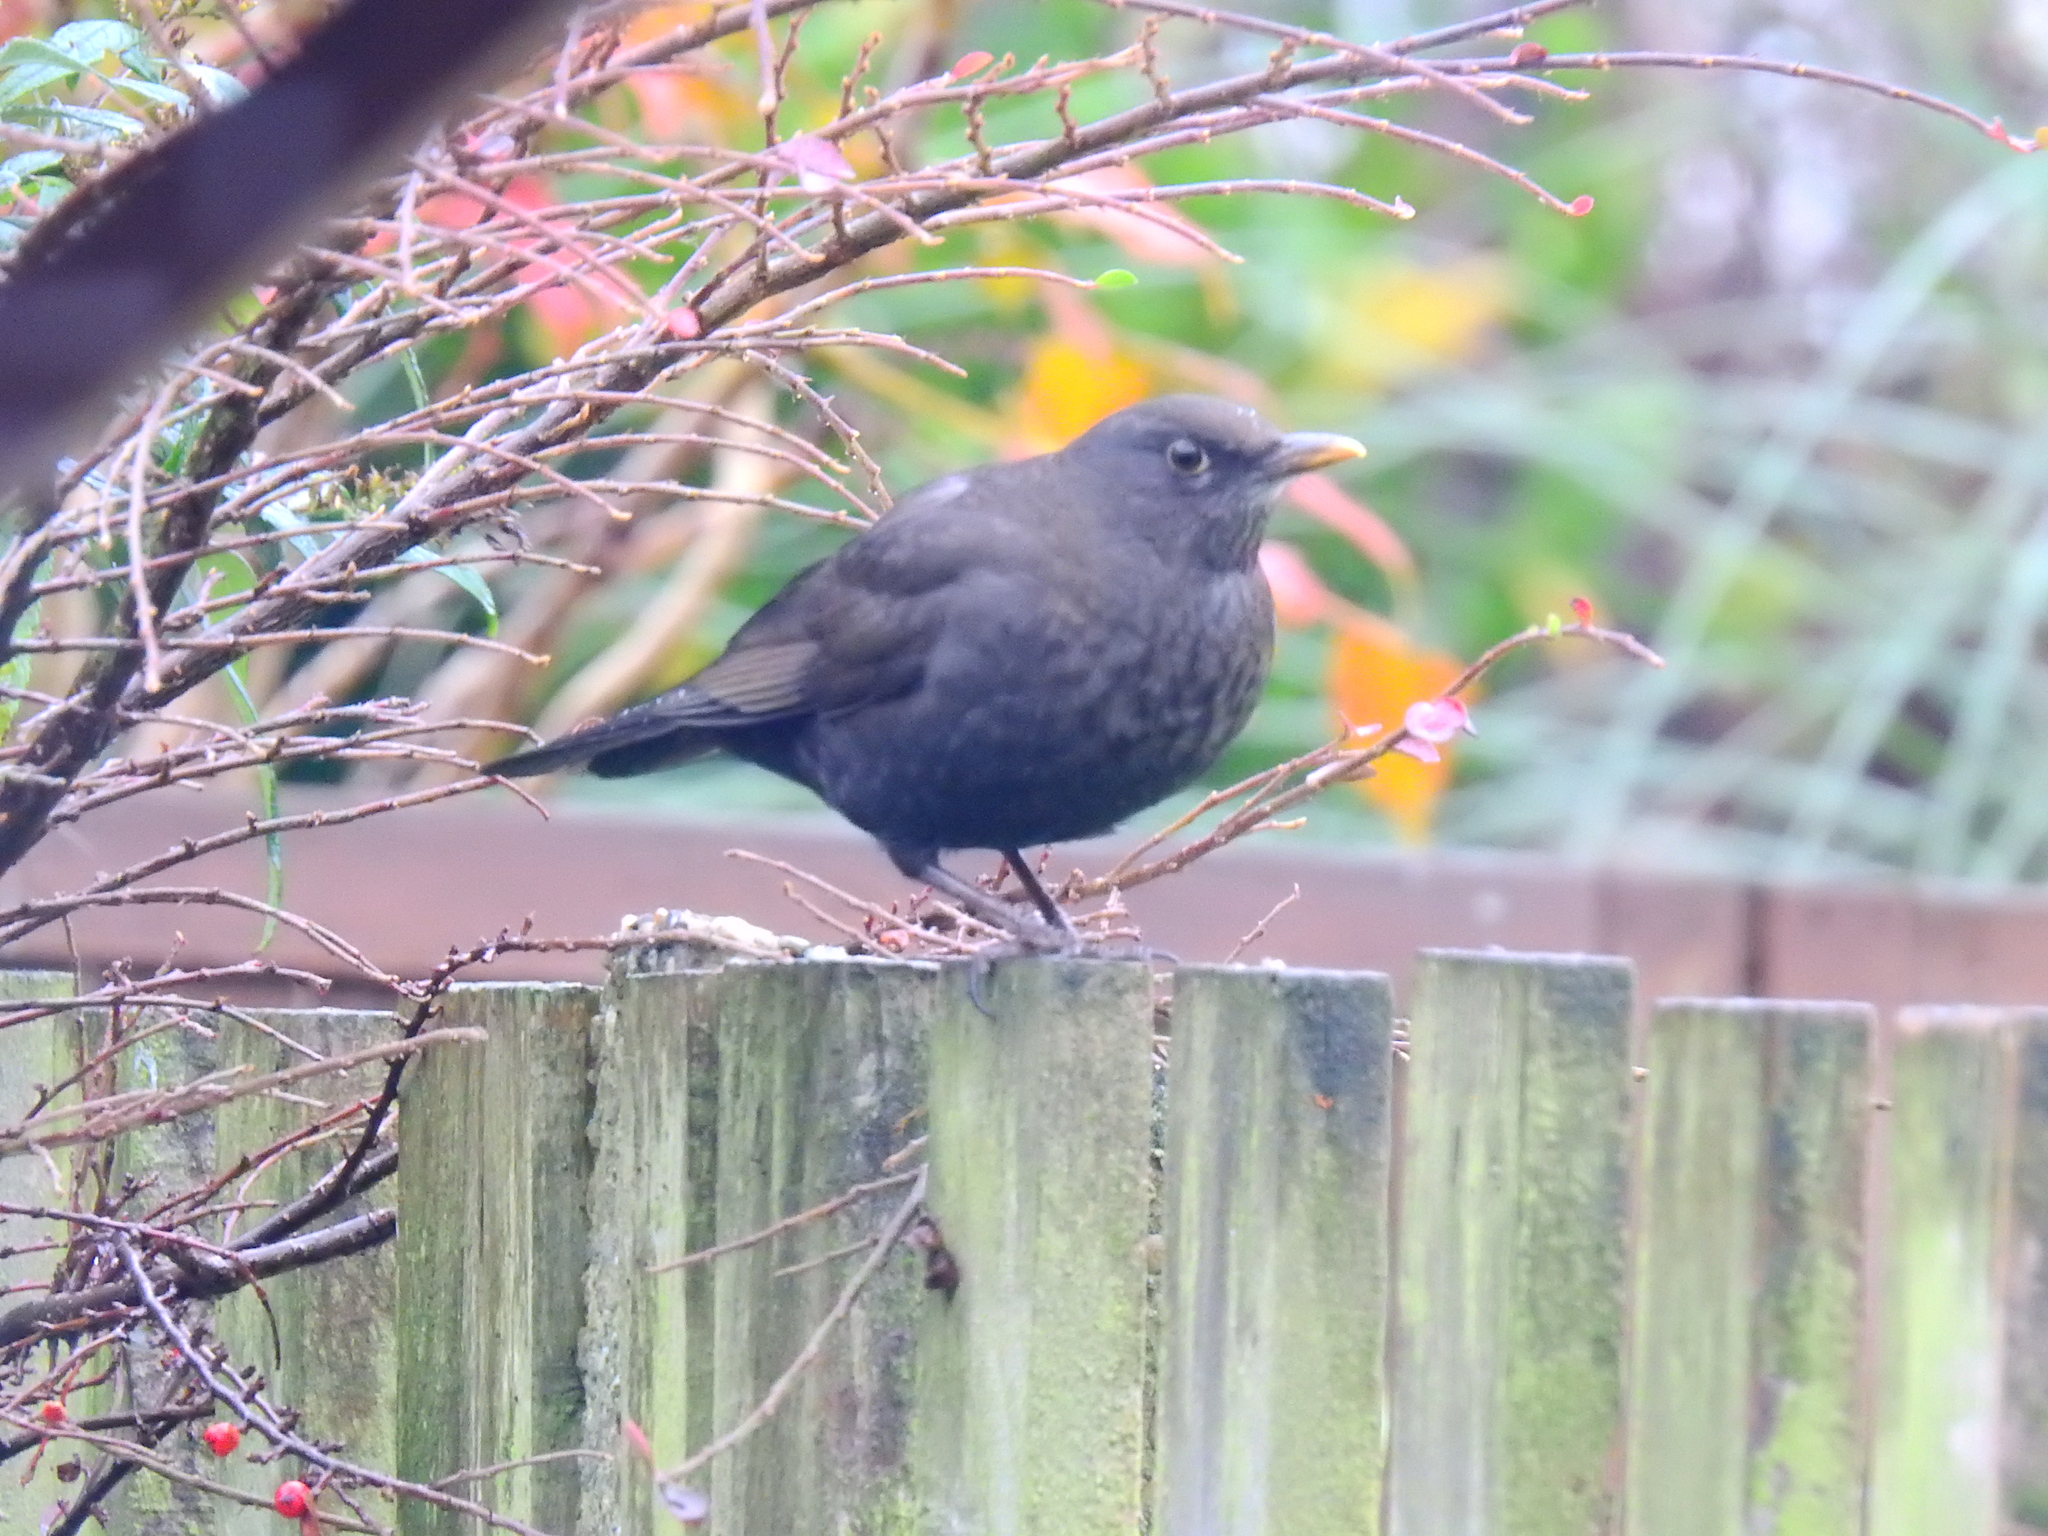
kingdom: Animalia
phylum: Chordata
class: Aves
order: Passeriformes
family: Turdidae
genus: Turdus
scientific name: Turdus merula
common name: Common blackbird
